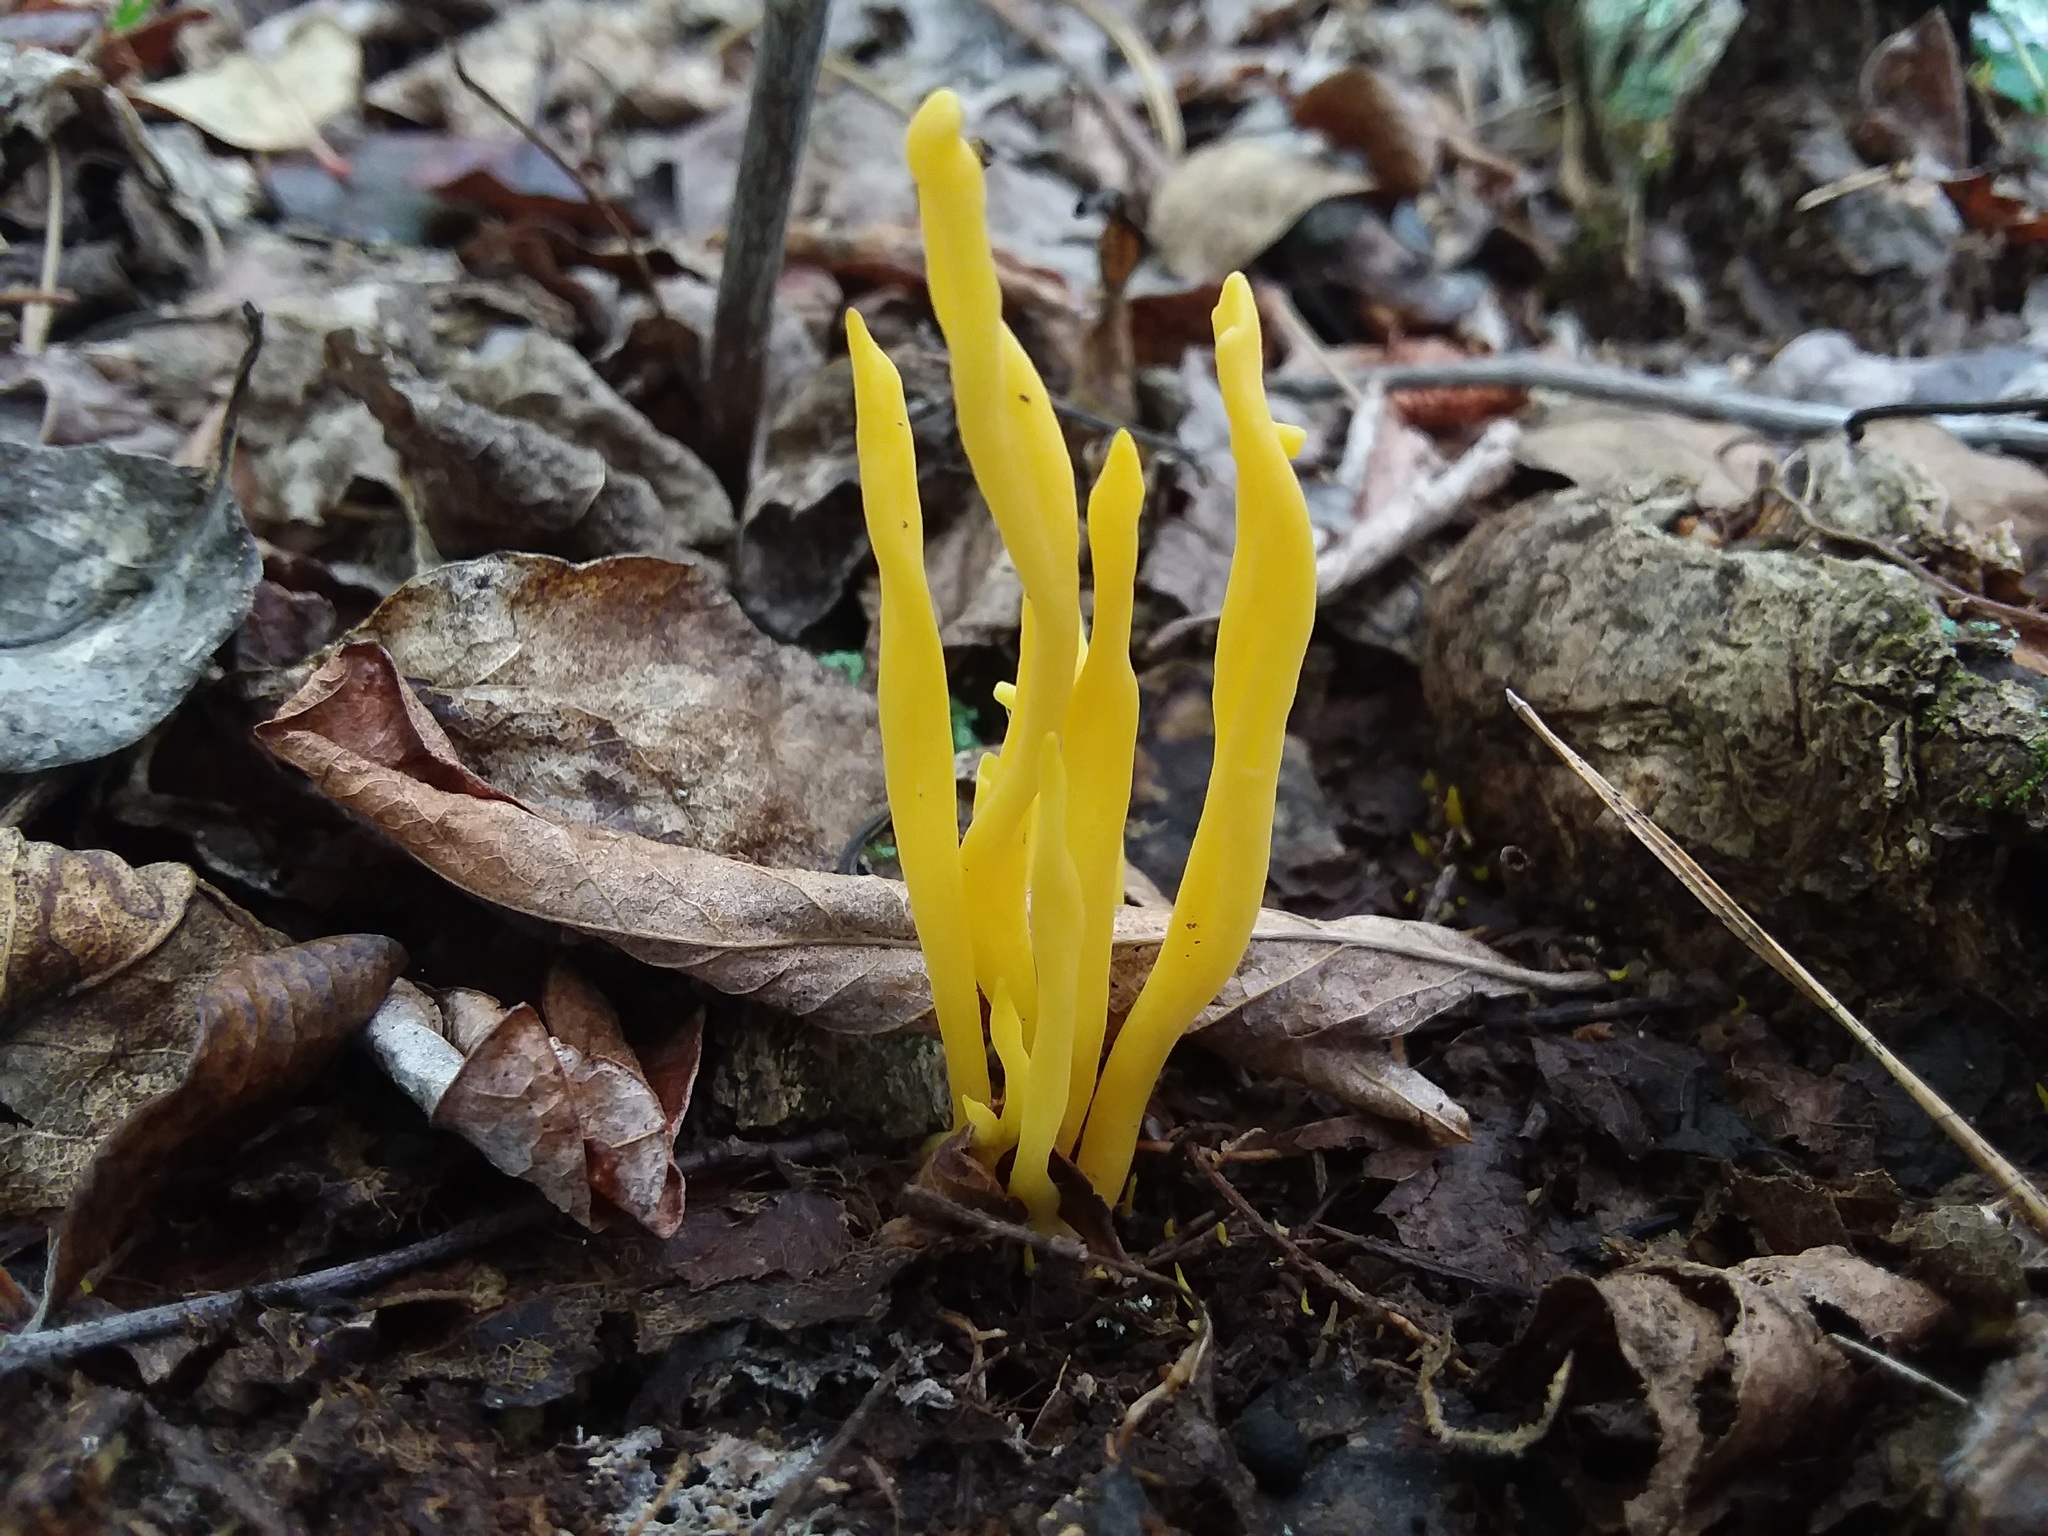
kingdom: Fungi
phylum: Basidiomycota
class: Agaricomycetes
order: Agaricales
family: Clavariaceae
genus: Clavulinopsis
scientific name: Clavulinopsis fusiformis
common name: Golden spindles
